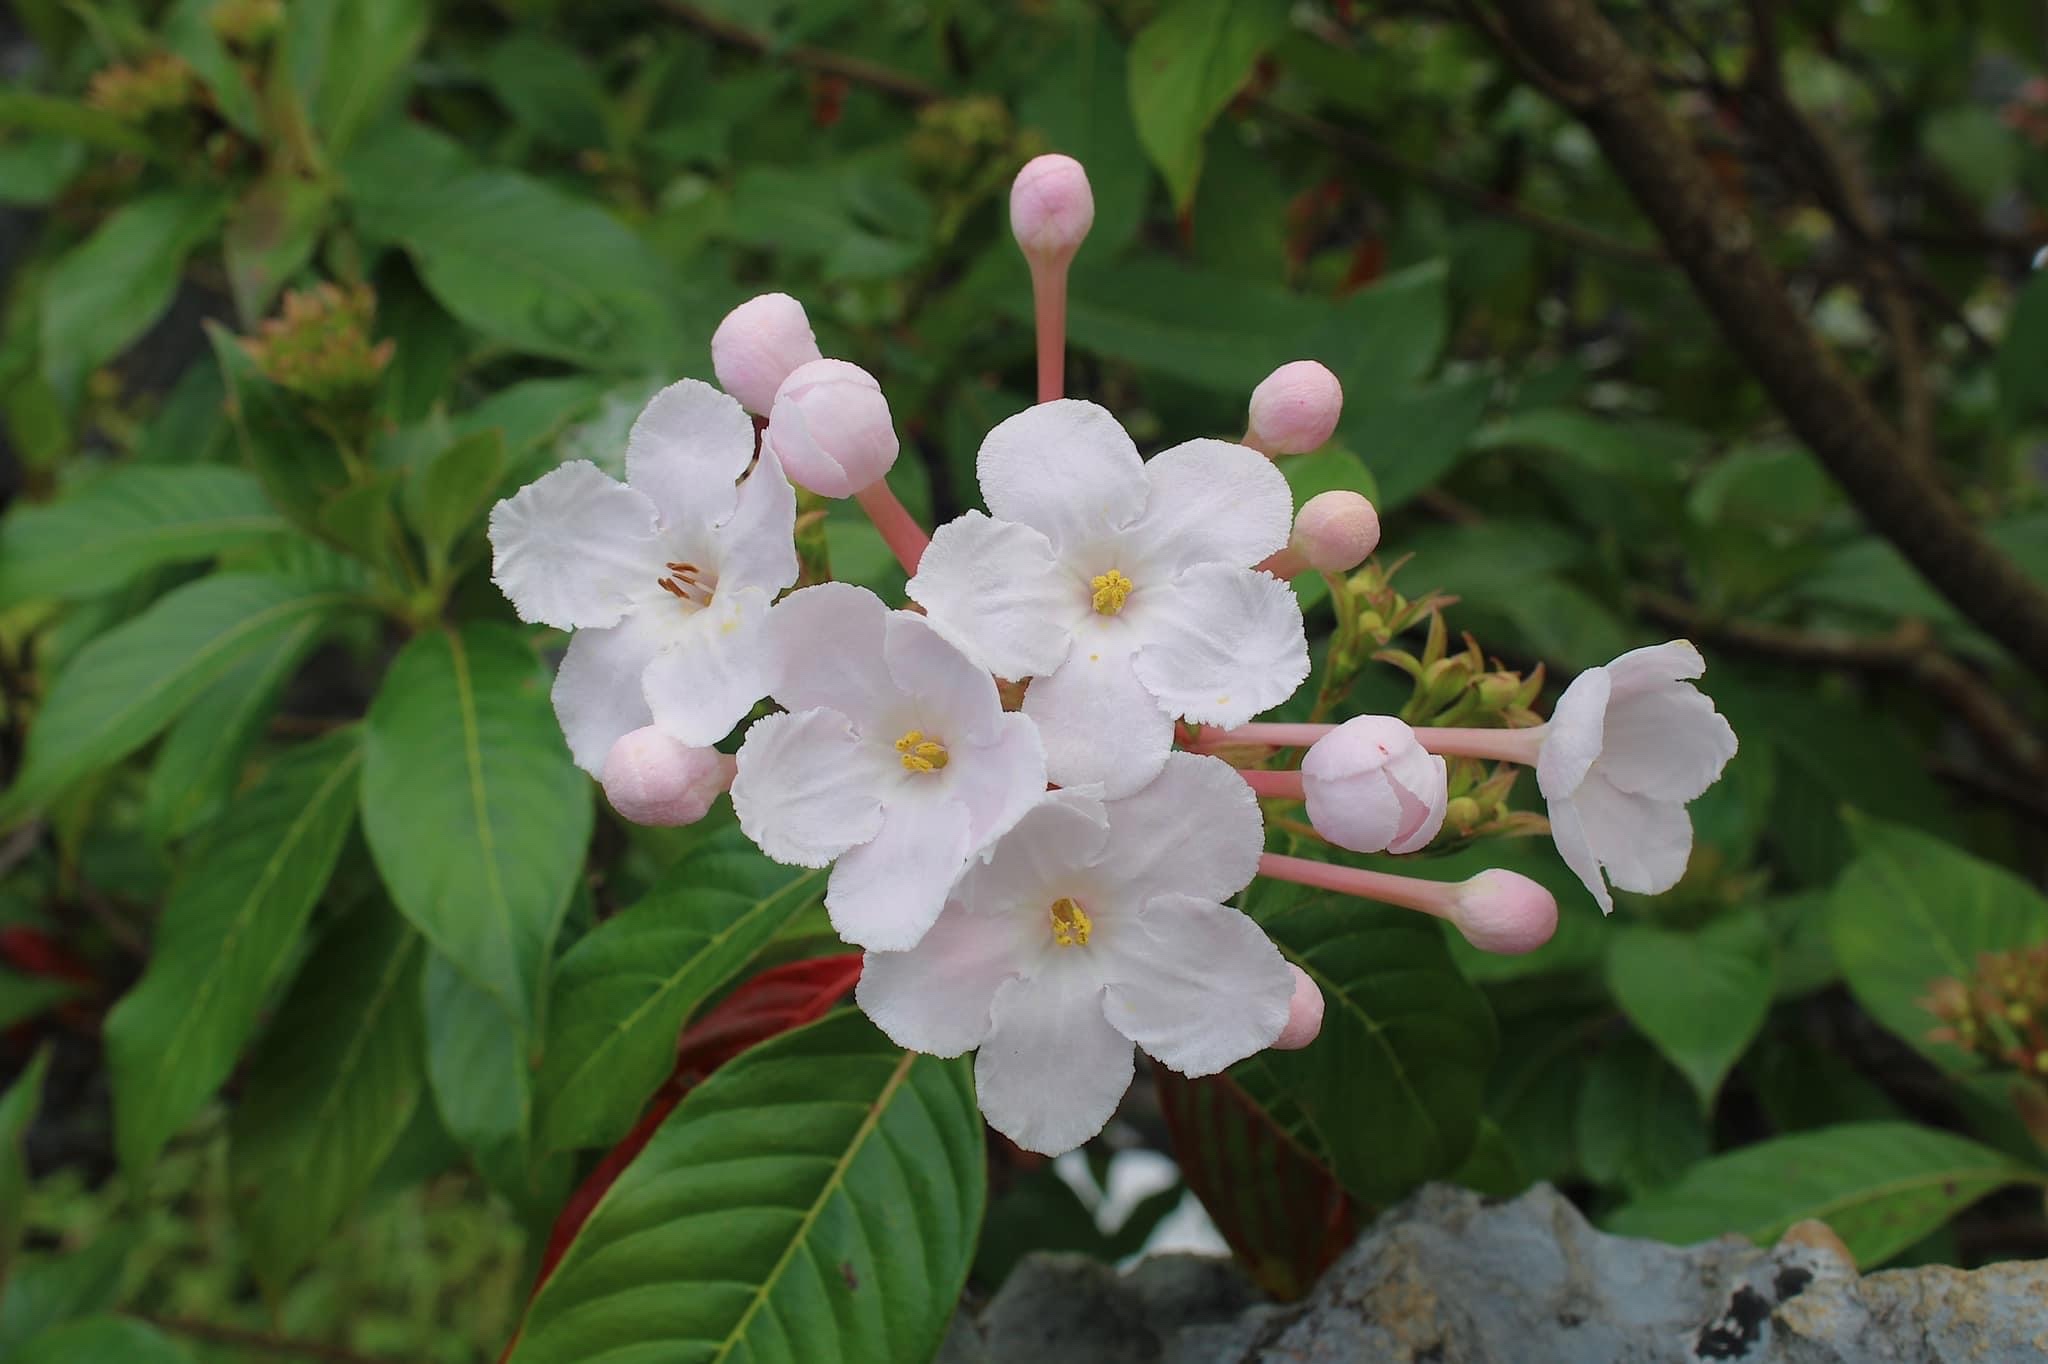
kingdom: Plantae
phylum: Tracheophyta
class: Magnoliopsida
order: Gentianales
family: Rubiaceae
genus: Luculia
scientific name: Luculia gratissima
